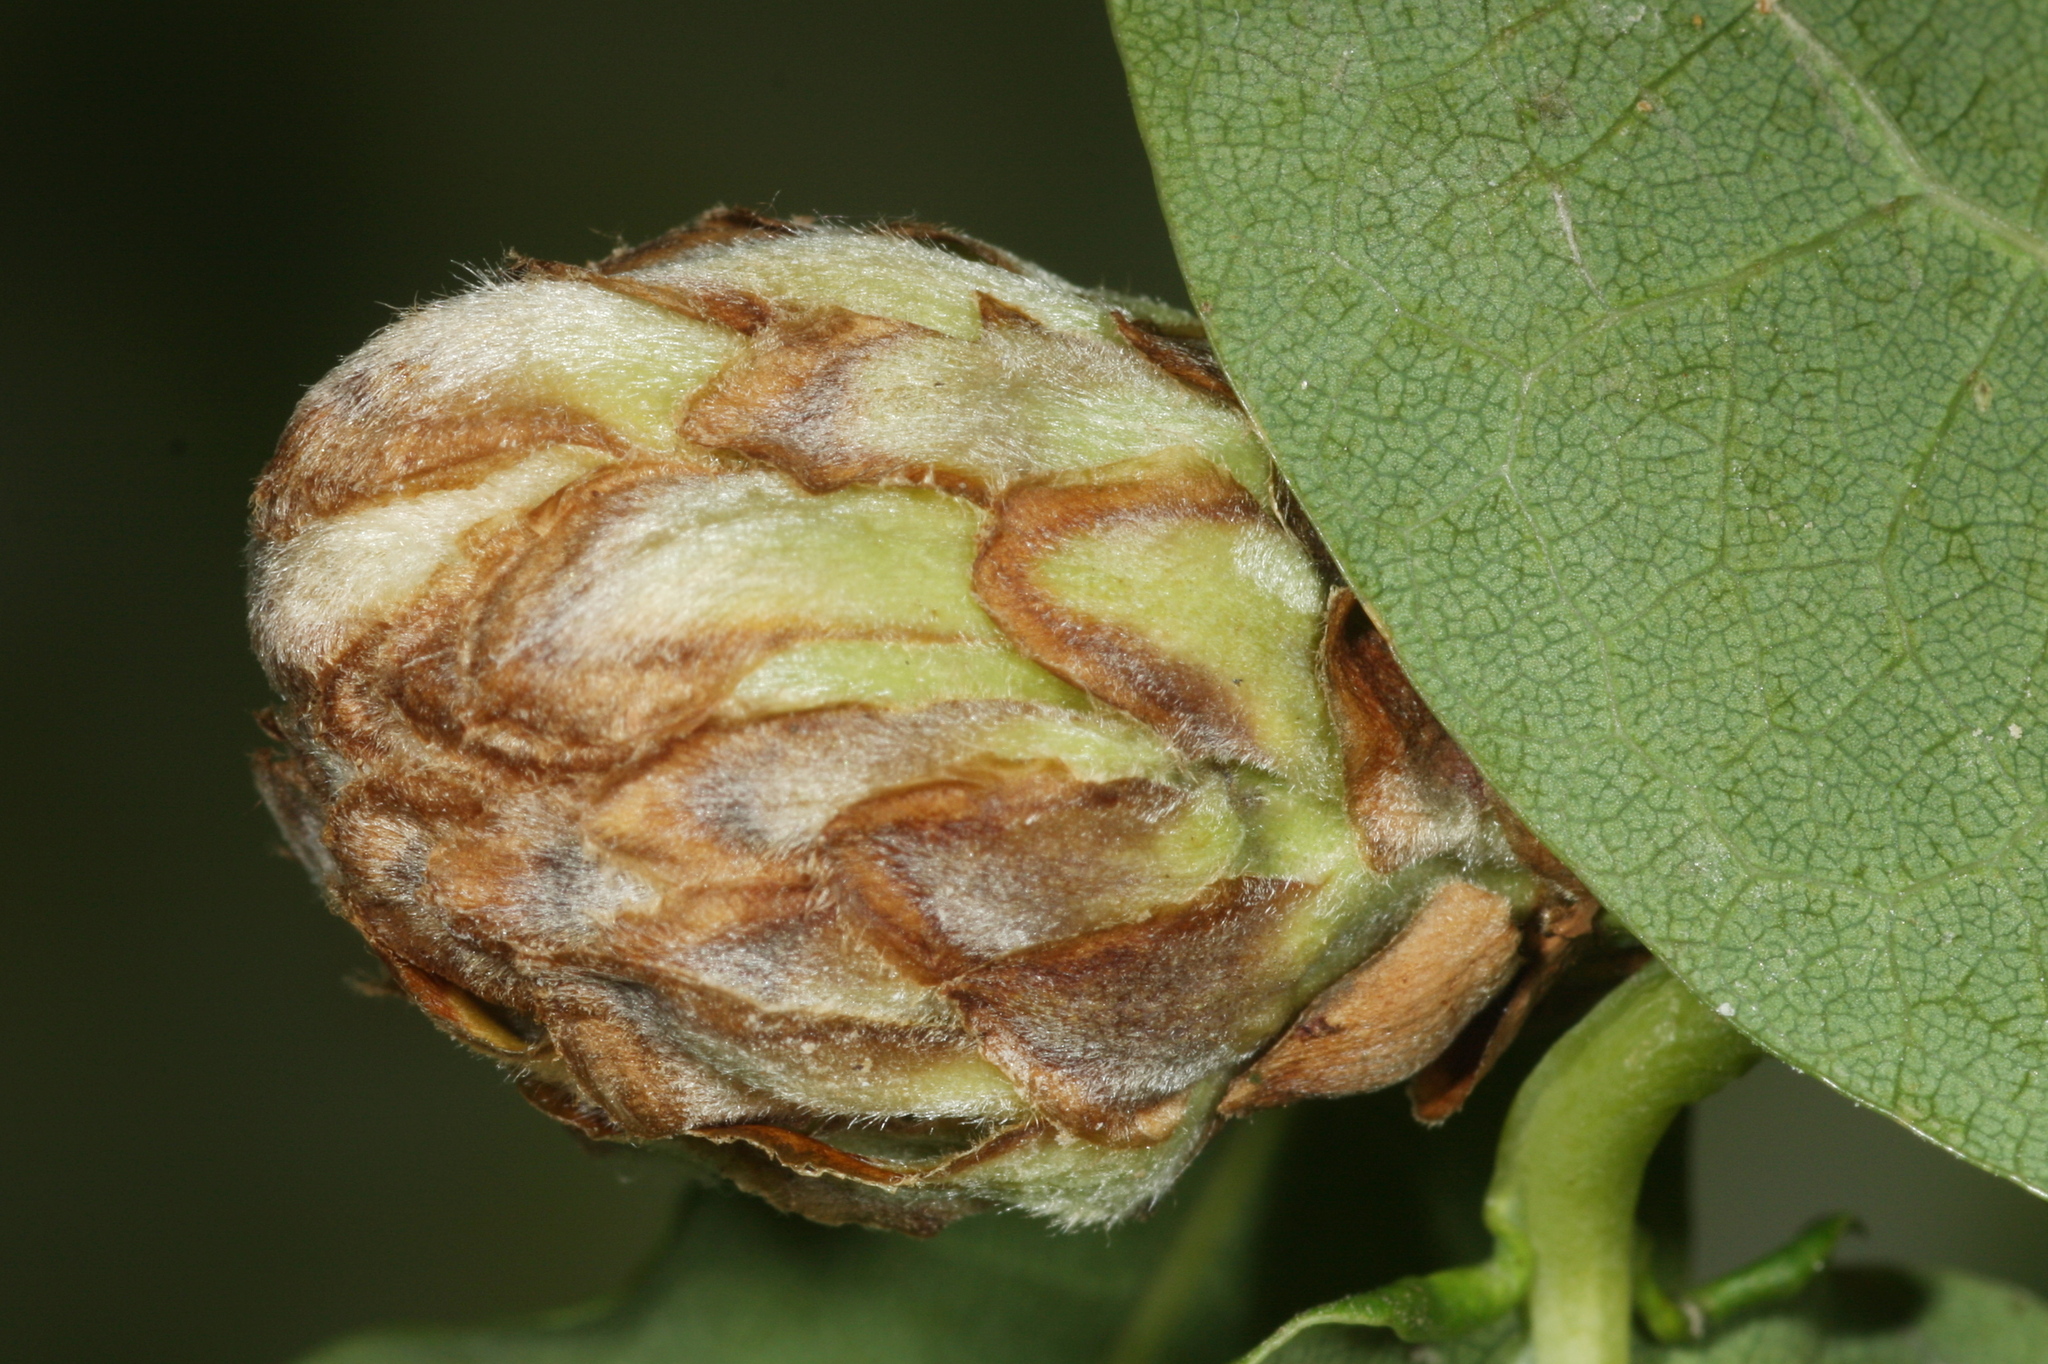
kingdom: Animalia
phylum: Arthropoda
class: Insecta
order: Hymenoptera
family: Cynipidae
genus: Andricus
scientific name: Andricus foecundatrix
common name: Artichoke gall
